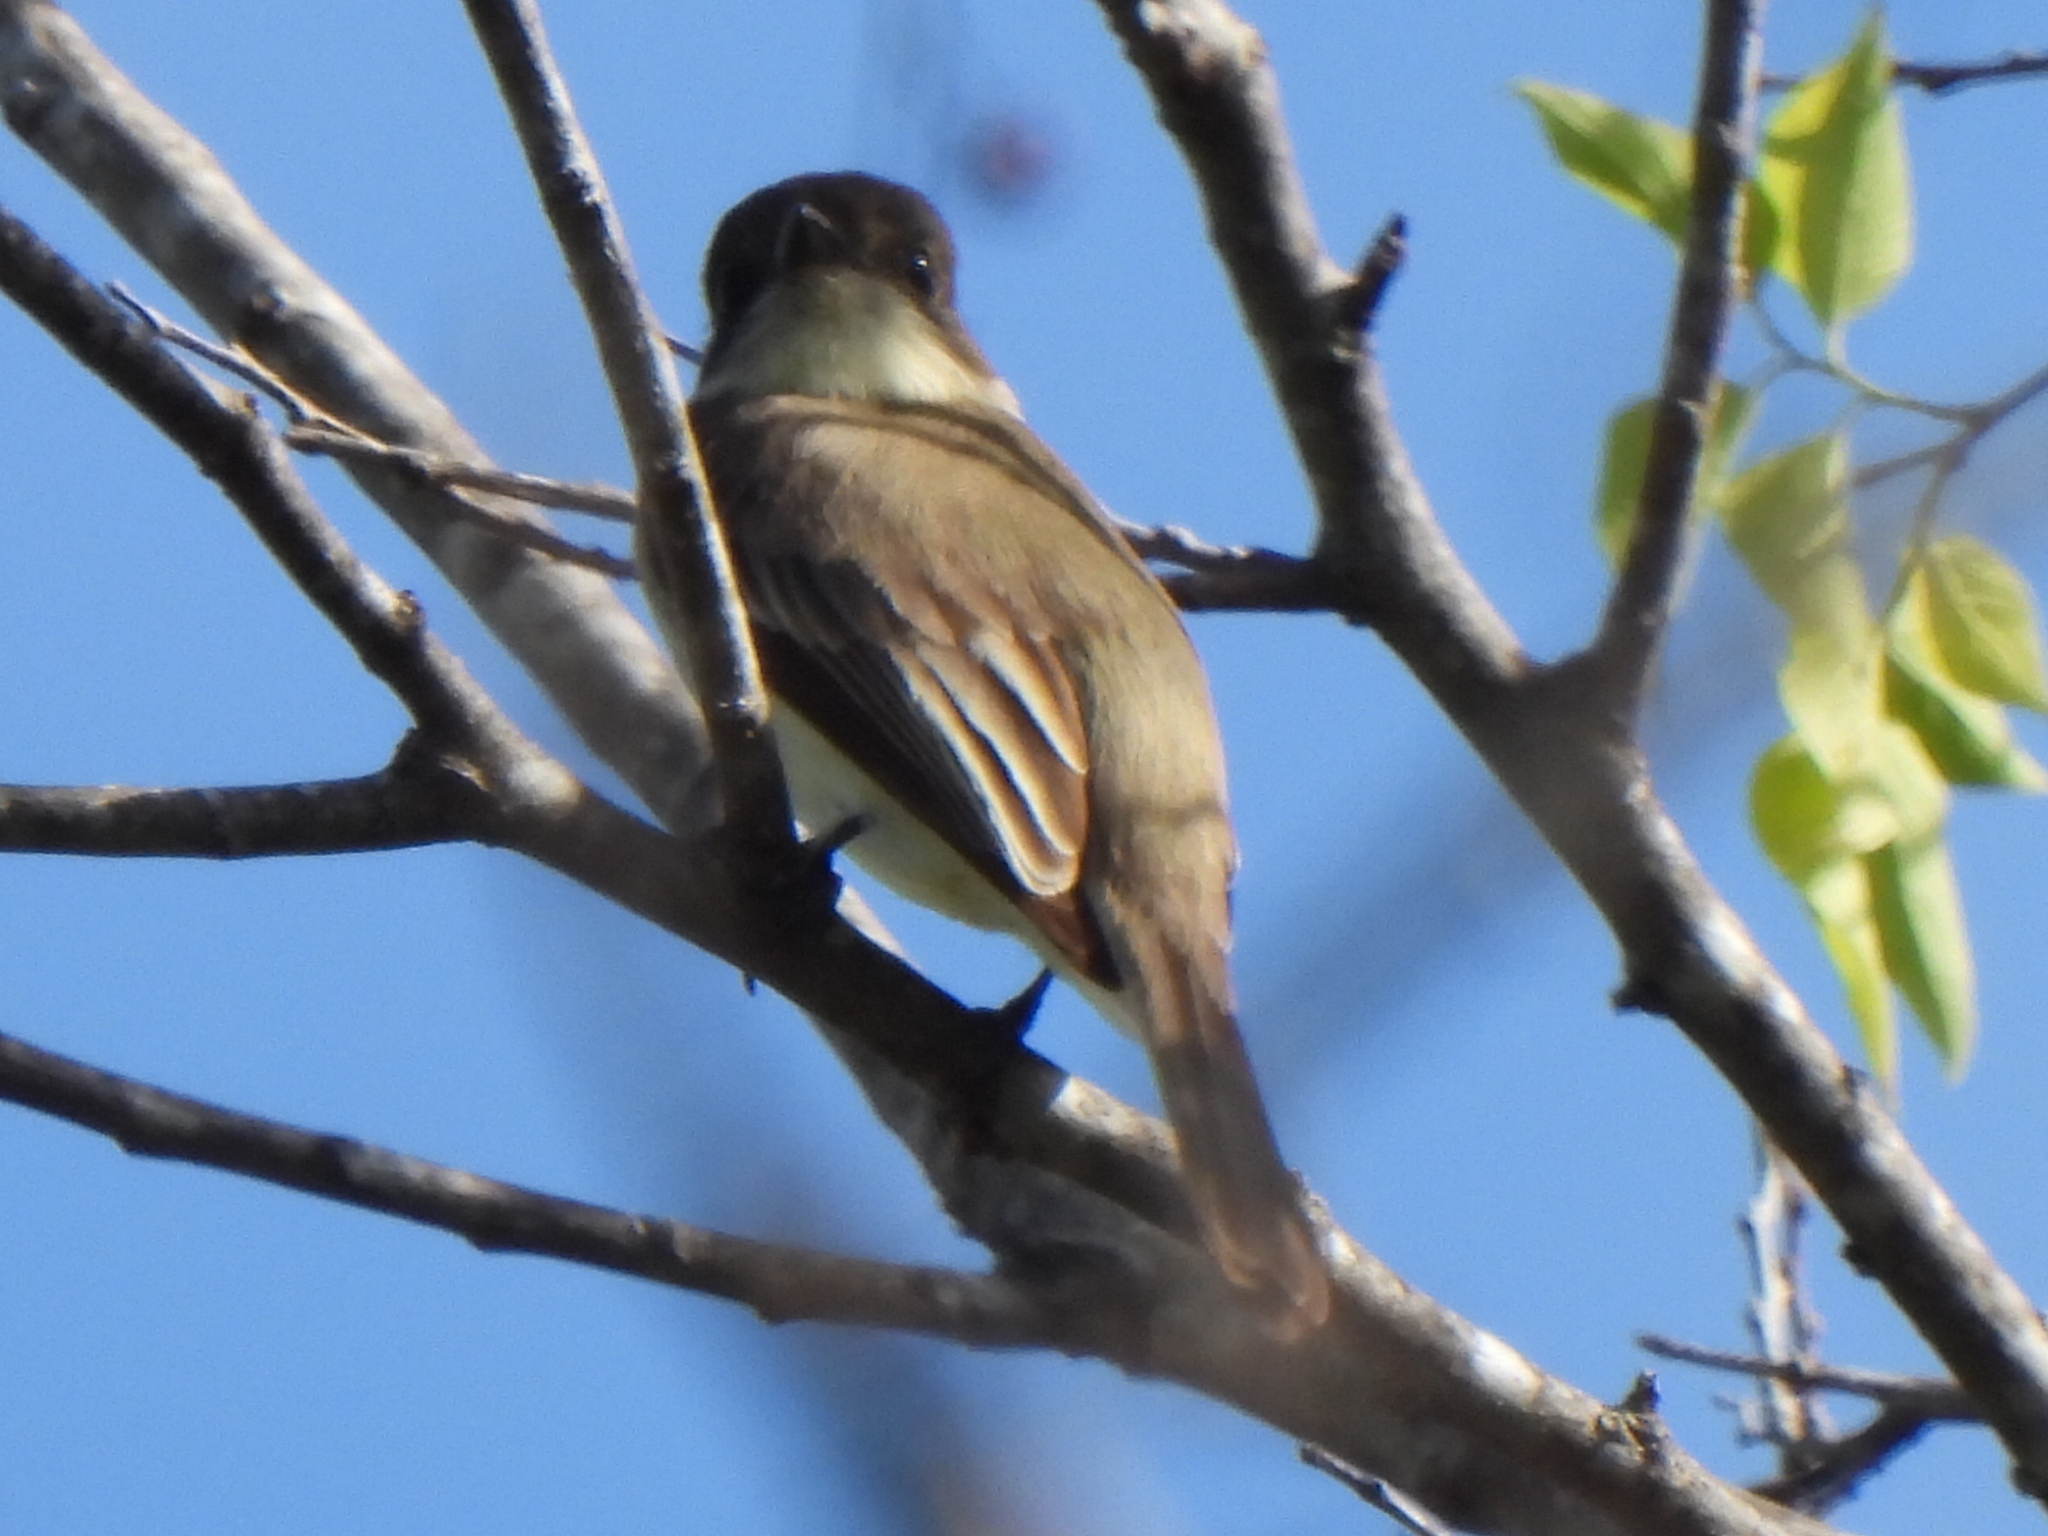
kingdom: Animalia
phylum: Chordata
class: Aves
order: Passeriformes
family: Tyrannidae
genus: Sayornis
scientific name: Sayornis phoebe
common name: Eastern phoebe
